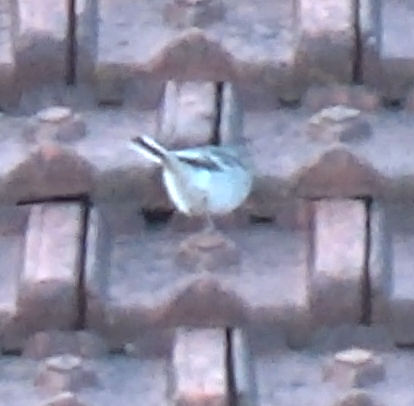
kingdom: Animalia
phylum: Chordata
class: Aves
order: Passeriformes
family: Motacillidae
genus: Motacilla
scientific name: Motacilla alba
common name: White wagtail
